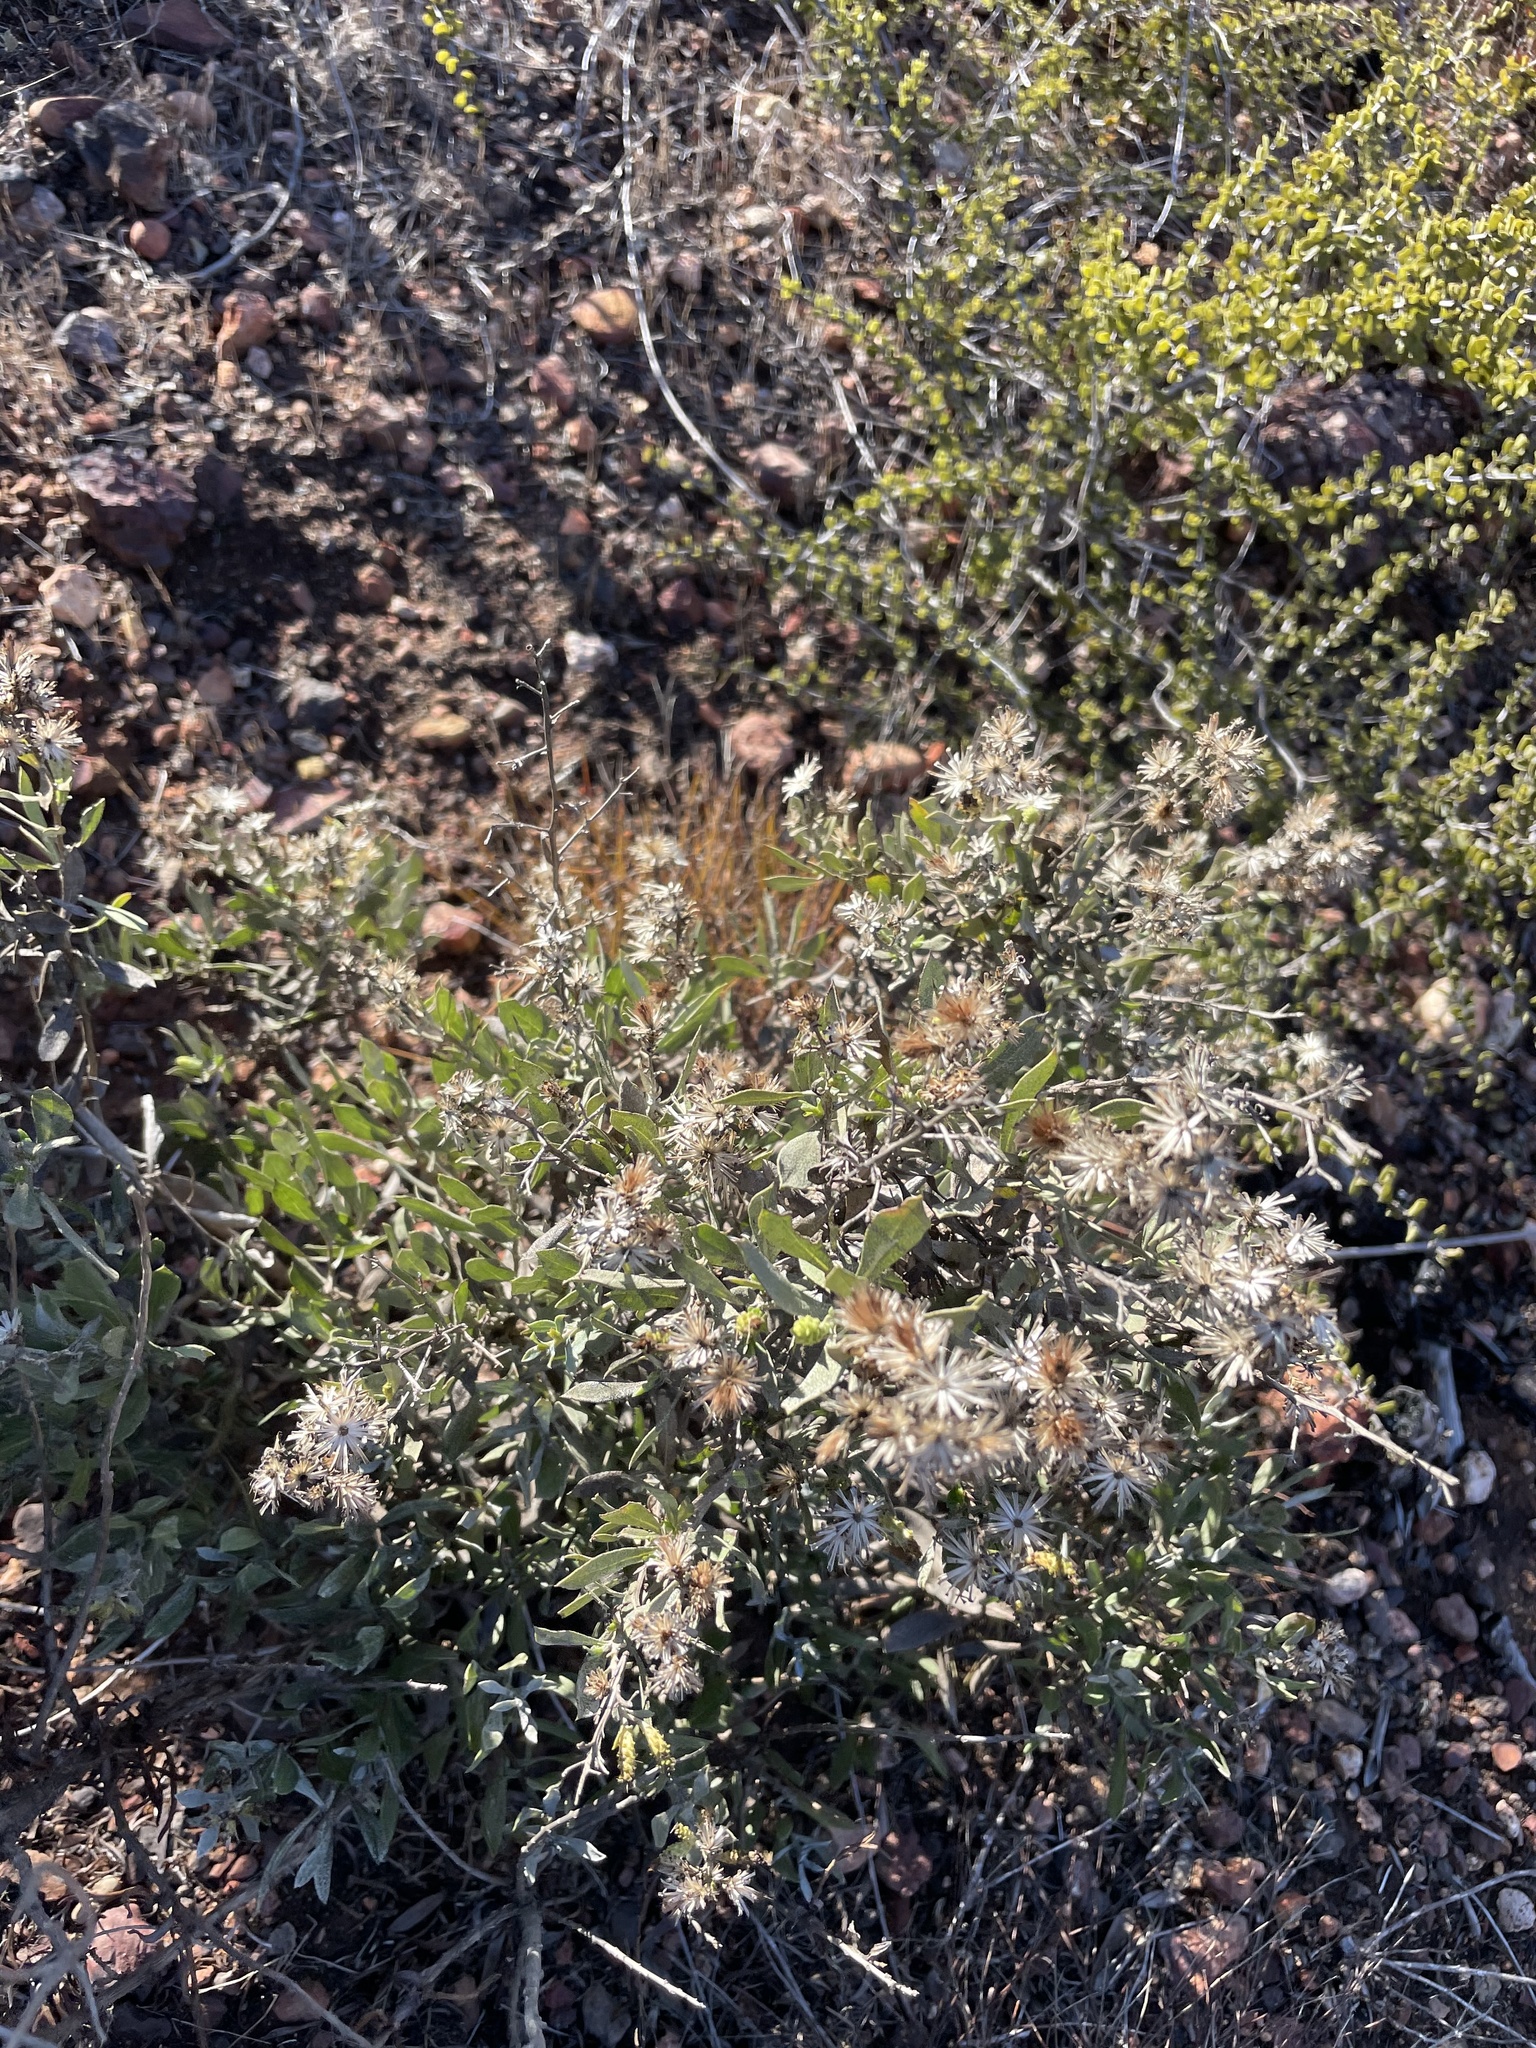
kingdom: Plantae
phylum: Tracheophyta
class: Magnoliopsida
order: Asterales
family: Asteraceae
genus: Hazardia
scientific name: Hazardia orcuttii
